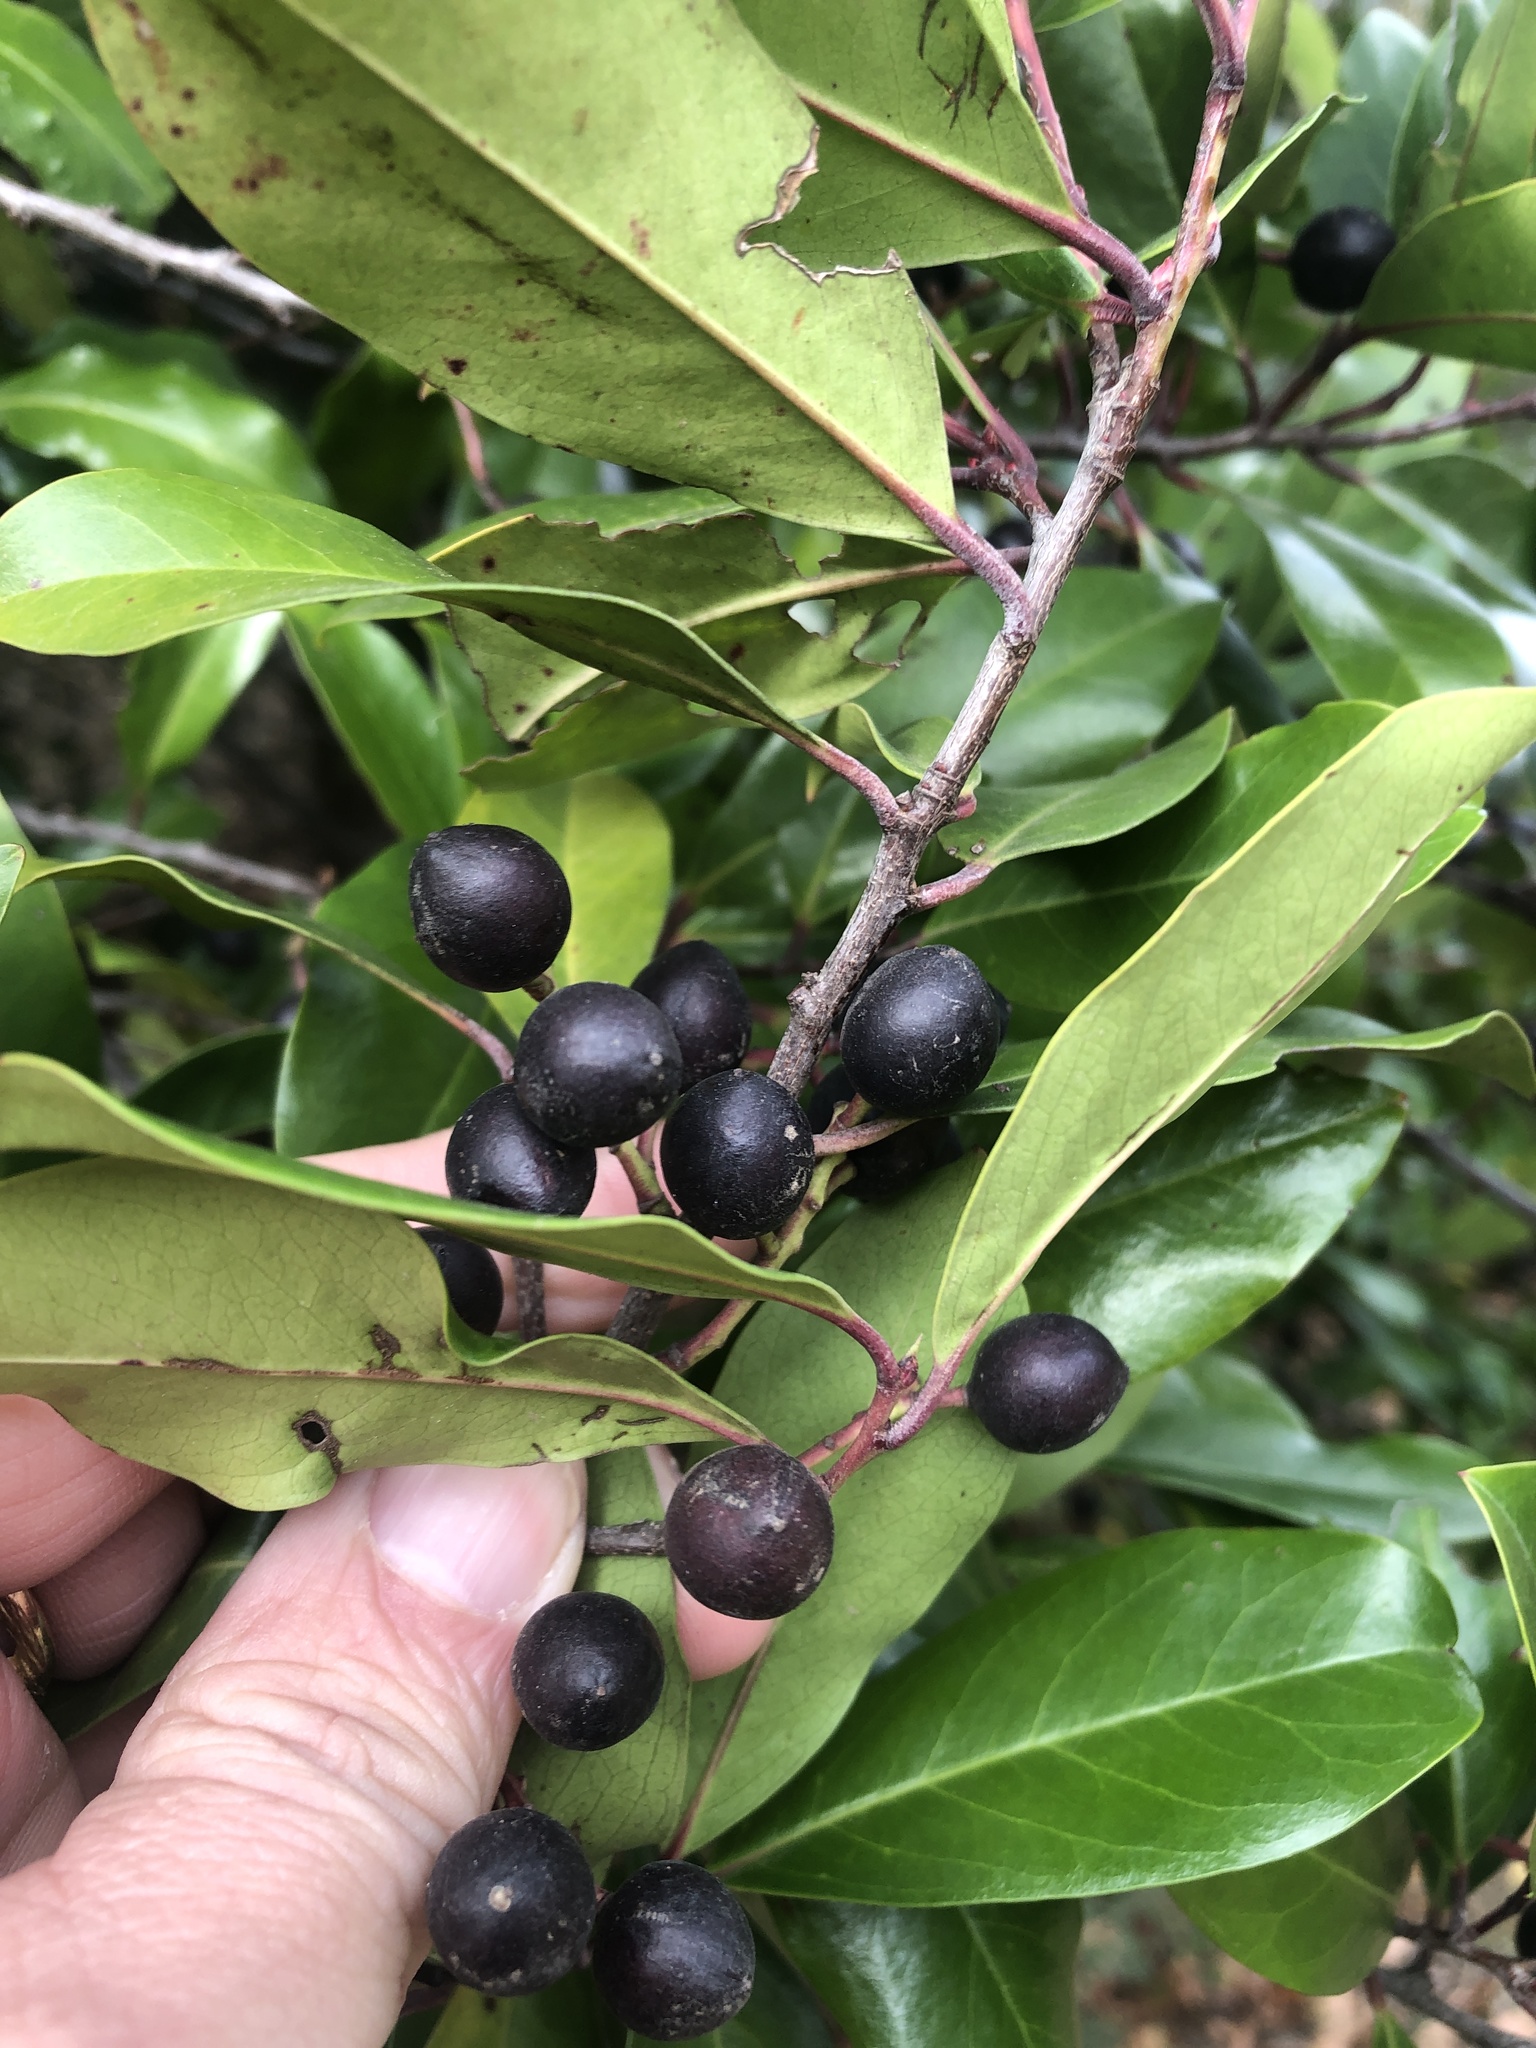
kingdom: Plantae
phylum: Tracheophyta
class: Magnoliopsida
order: Rosales
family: Rosaceae
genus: Prunus
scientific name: Prunus caroliniana
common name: Carolina laurel cherry
